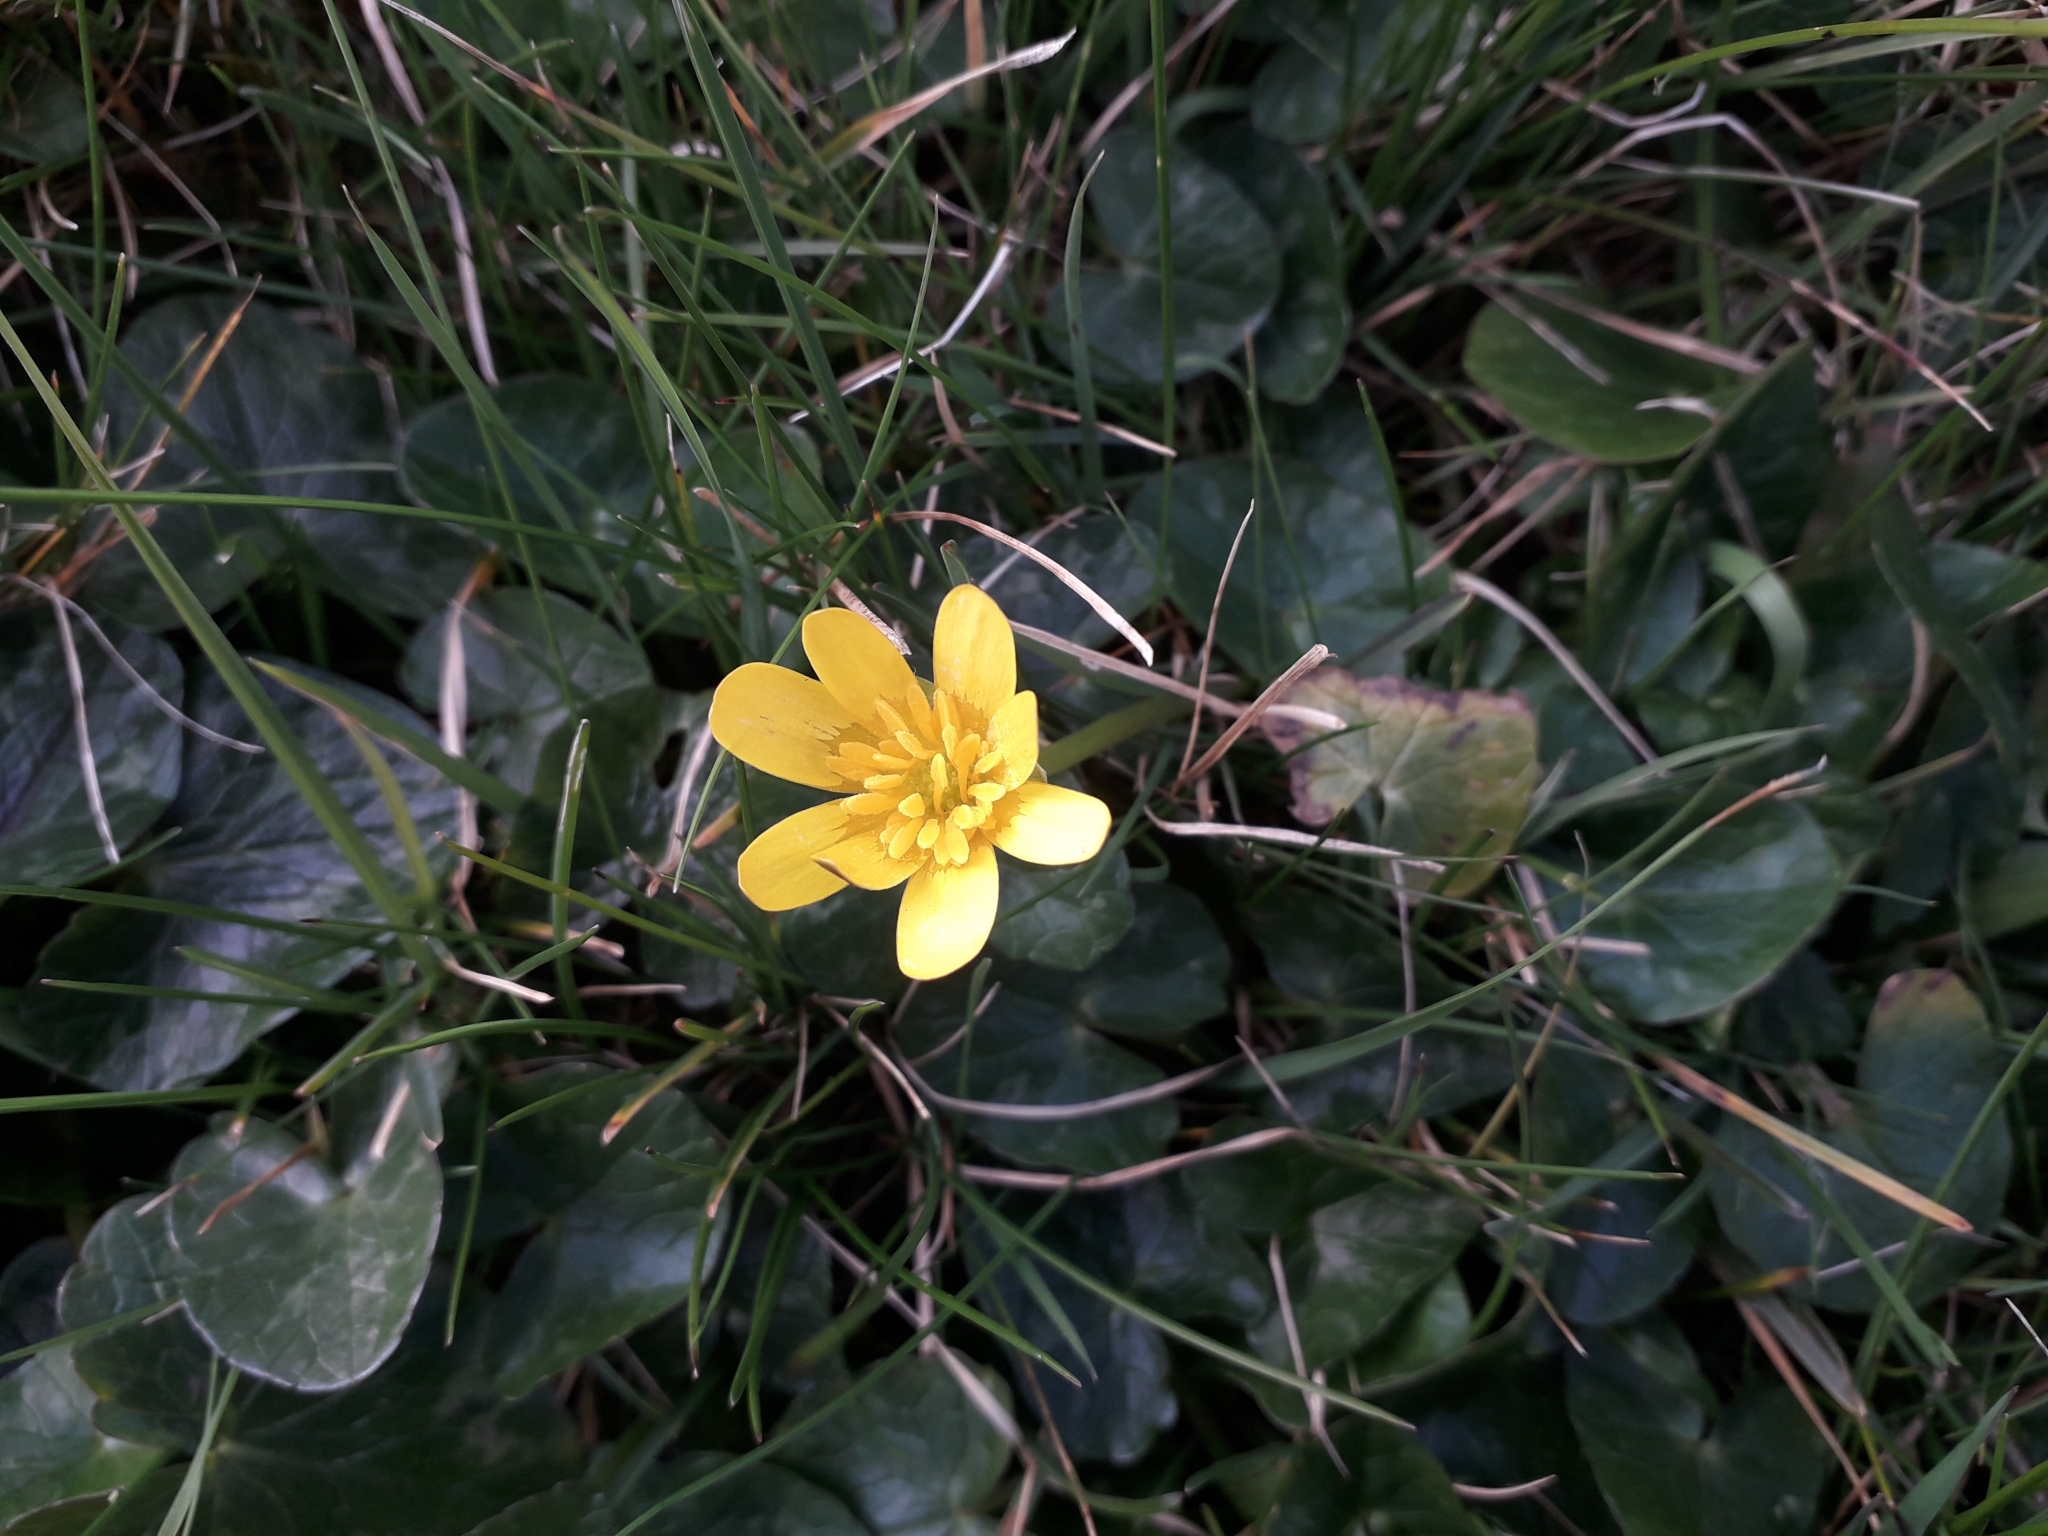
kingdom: Plantae
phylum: Tracheophyta
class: Magnoliopsida
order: Ranunculales
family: Ranunculaceae
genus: Ficaria
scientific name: Ficaria verna
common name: Lesser celandine
